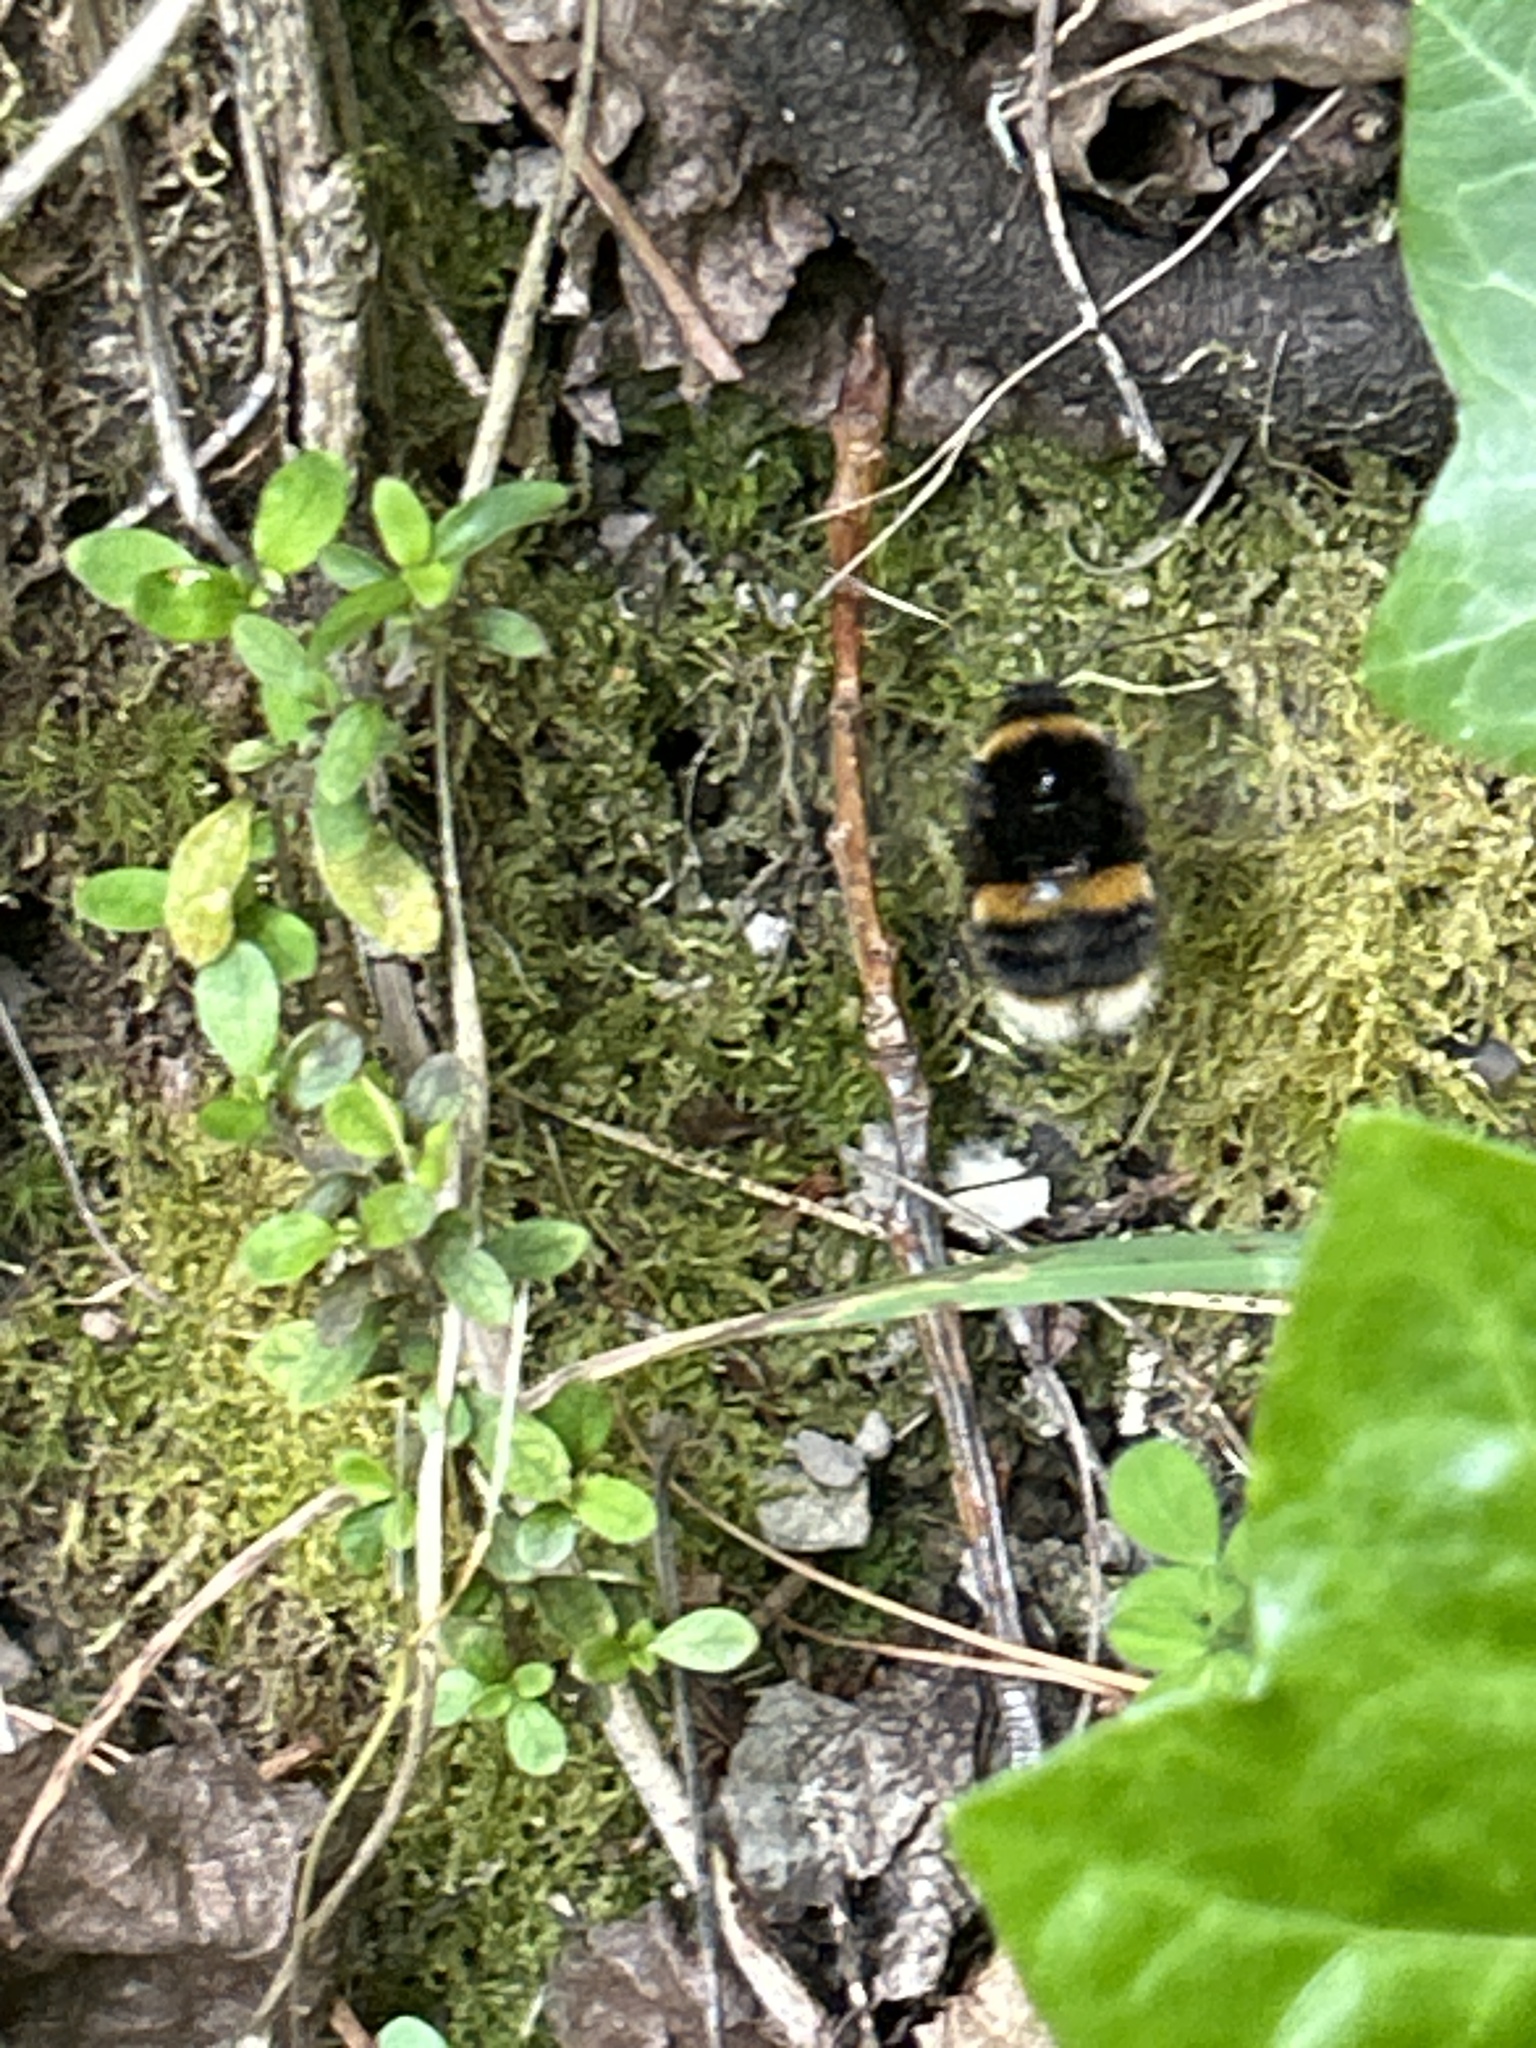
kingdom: Animalia
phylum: Arthropoda
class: Insecta
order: Hymenoptera
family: Apidae
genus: Bombus
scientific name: Bombus terrestris
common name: Buff-tailed bumblebee
